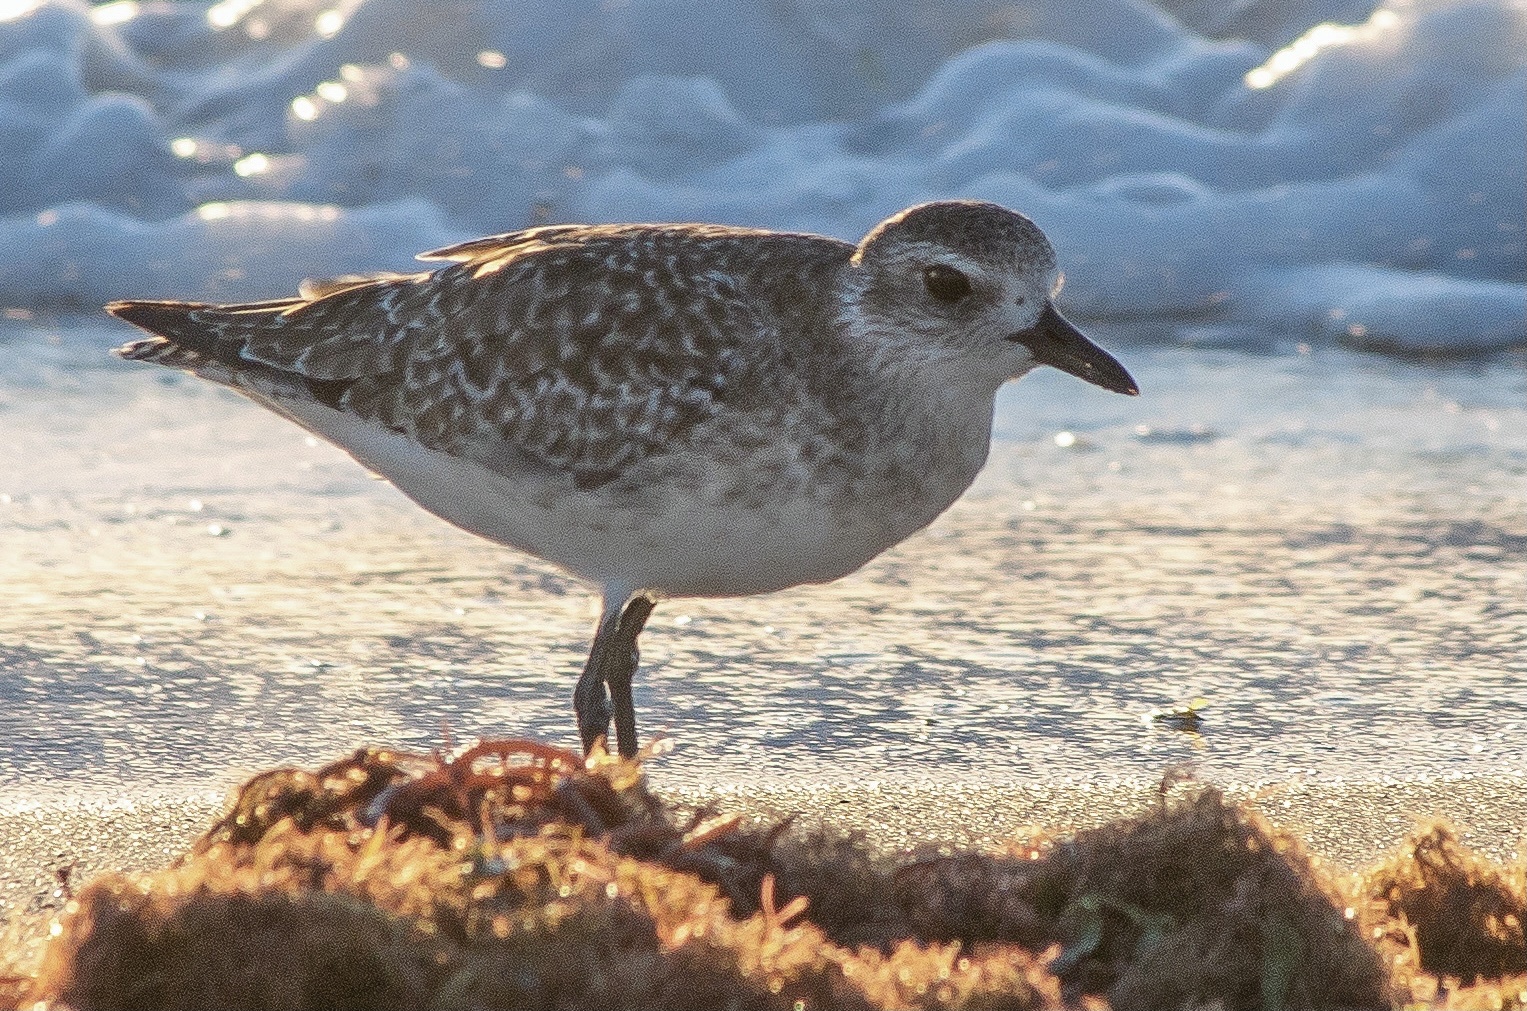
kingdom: Animalia
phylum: Chordata
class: Aves
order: Charadriiformes
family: Charadriidae
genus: Pluvialis
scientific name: Pluvialis squatarola
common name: Grey plover
